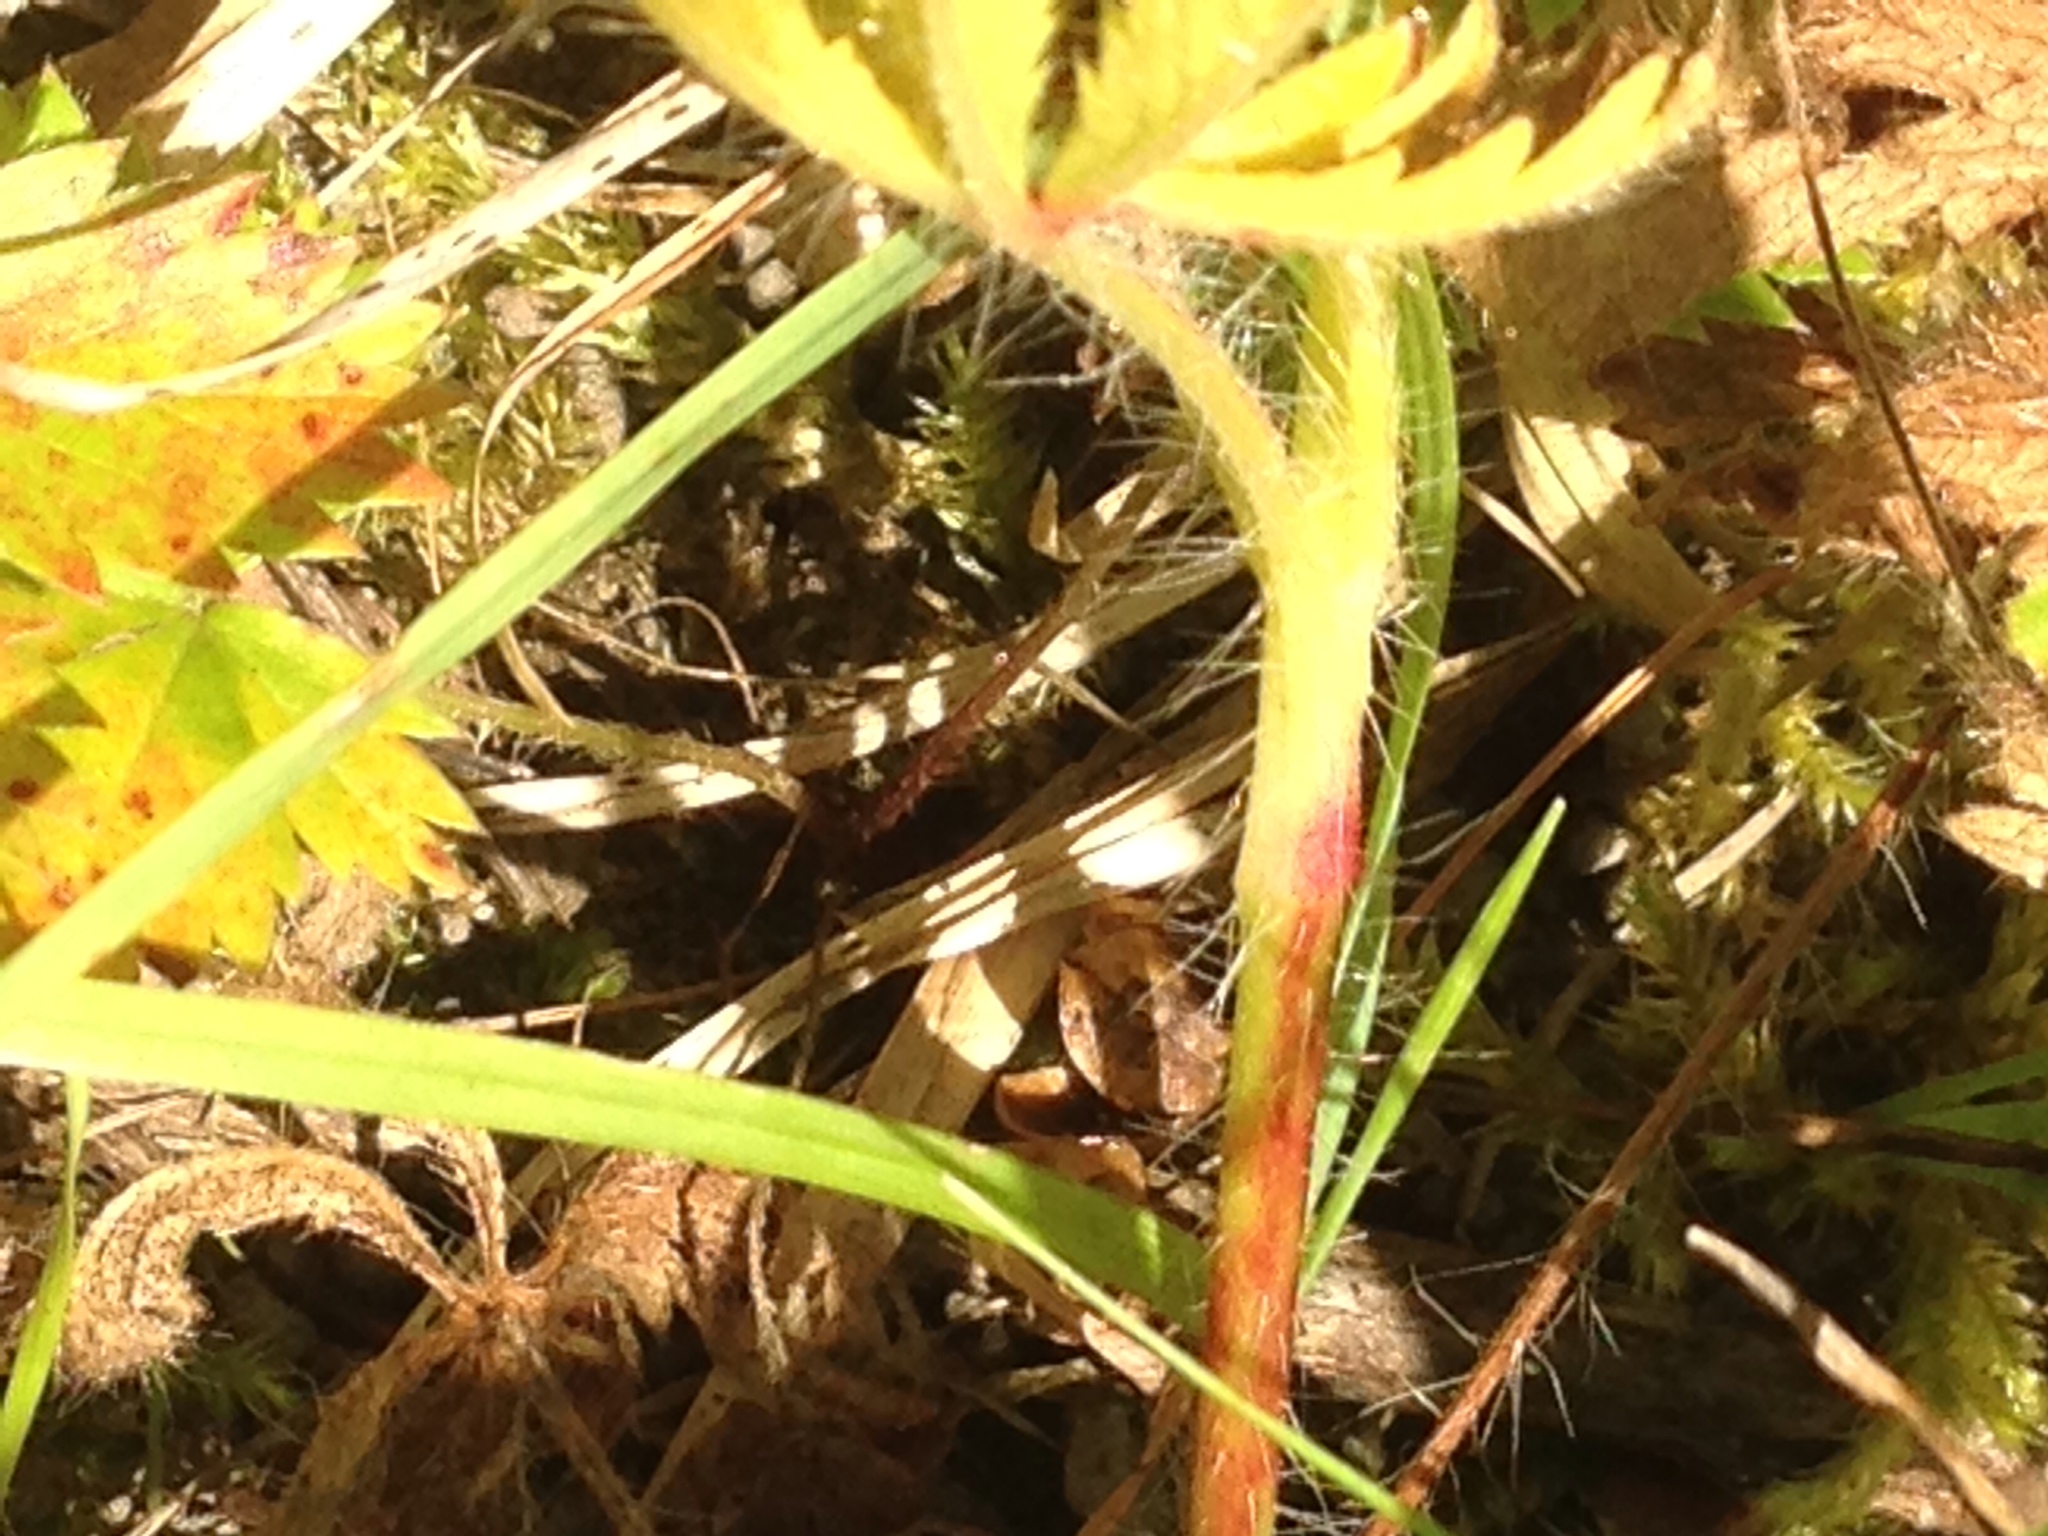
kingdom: Plantae
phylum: Tracheophyta
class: Magnoliopsida
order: Rosales
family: Rosaceae
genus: Potentilla
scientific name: Potentilla recta
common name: Sulphur cinquefoil
